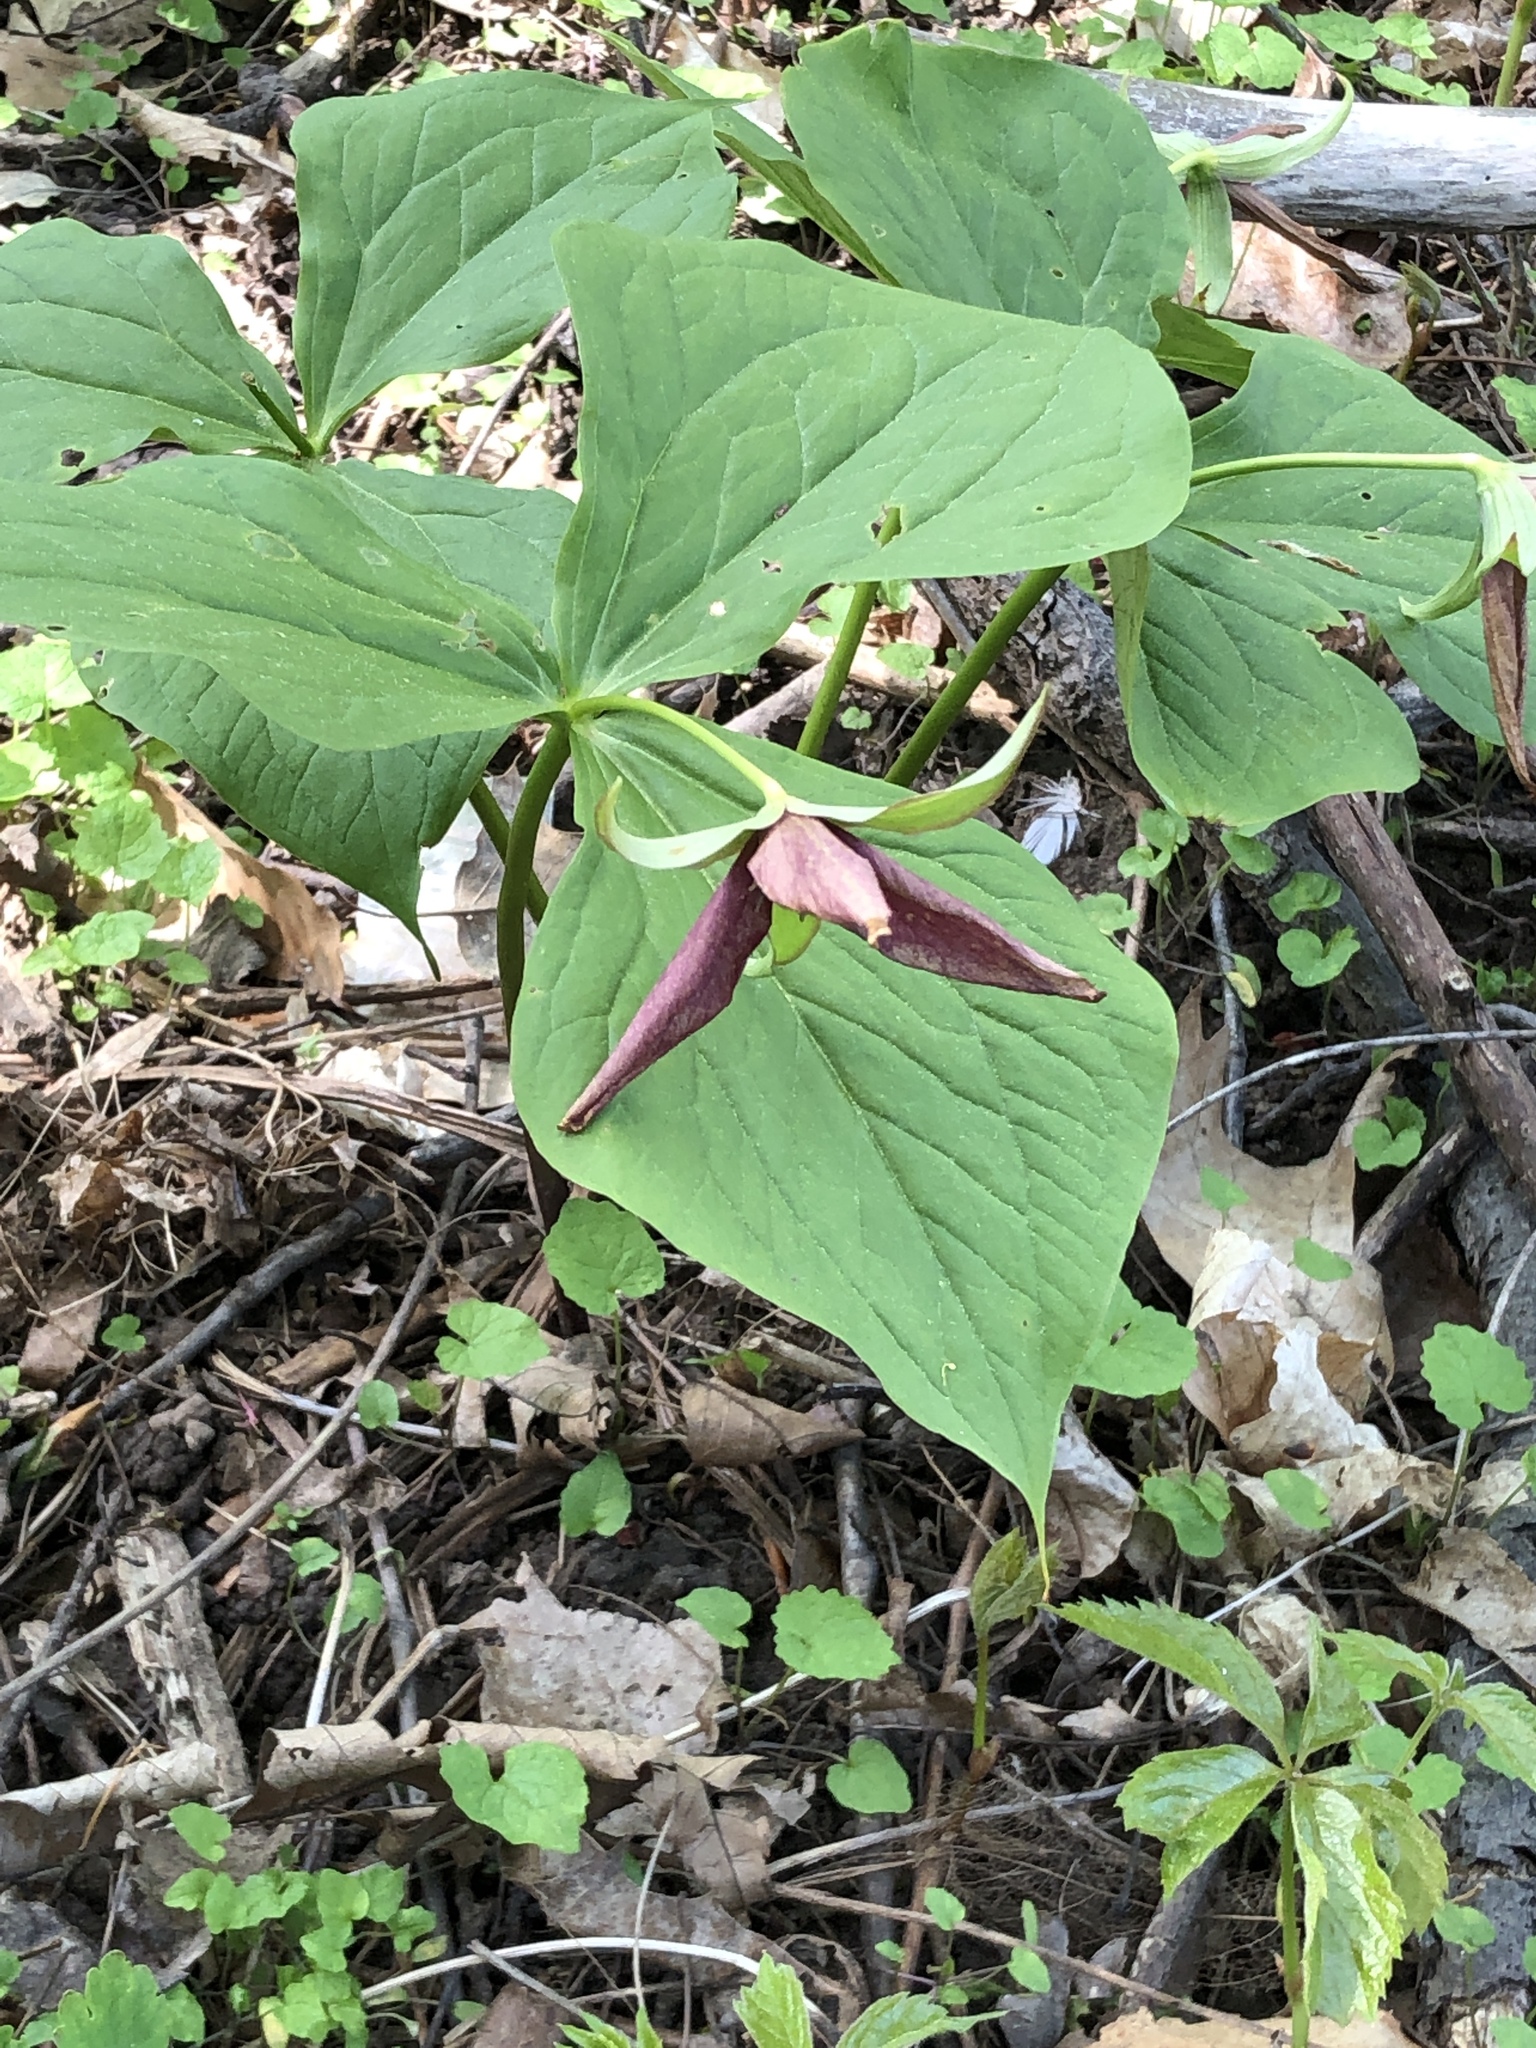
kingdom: Plantae
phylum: Tracheophyta
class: Liliopsida
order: Liliales
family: Melanthiaceae
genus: Trillium
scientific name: Trillium erectum
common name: Purple trillium
